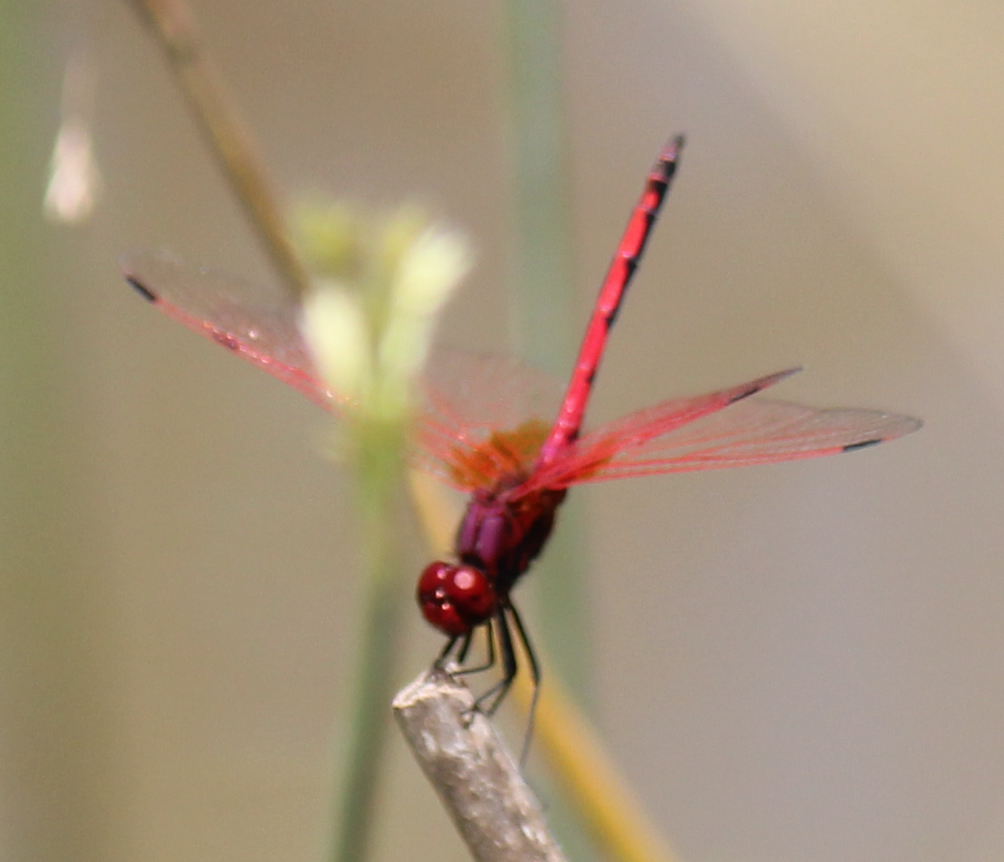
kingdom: Animalia
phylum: Arthropoda
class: Insecta
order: Odonata
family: Libellulidae
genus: Trithemis
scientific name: Trithemis arteriosa
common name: Red-veined dropwing
